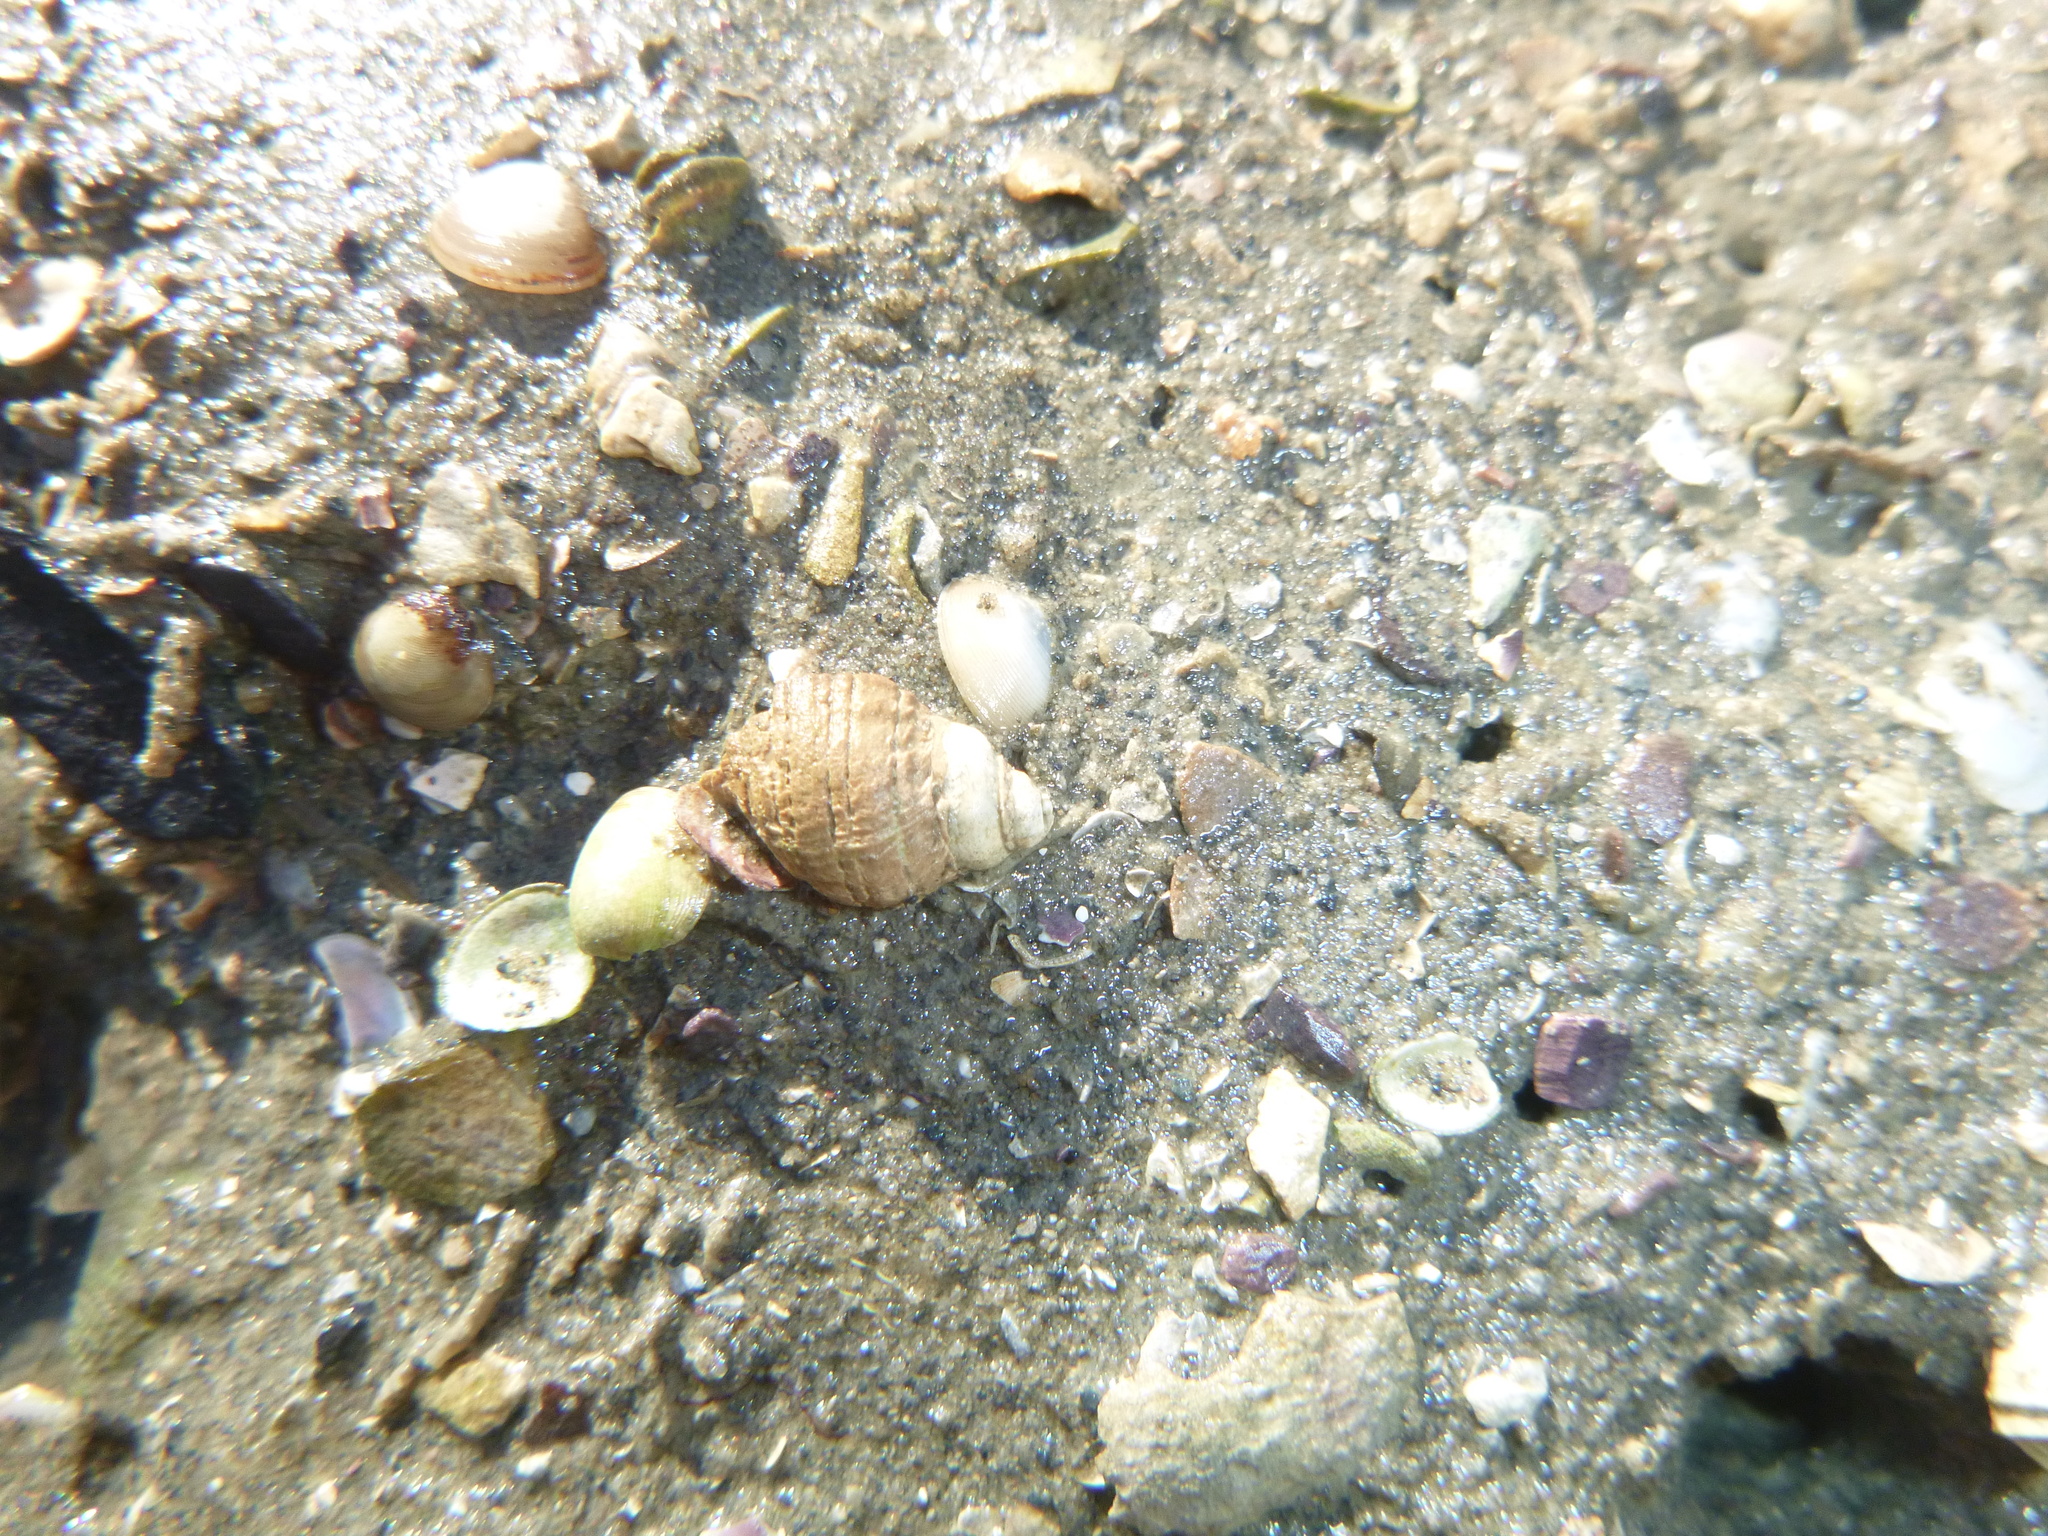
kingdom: Animalia
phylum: Mollusca
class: Gastropoda
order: Neogastropoda
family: Muricidae
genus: Haustrum
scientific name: Haustrum albomarginatum
